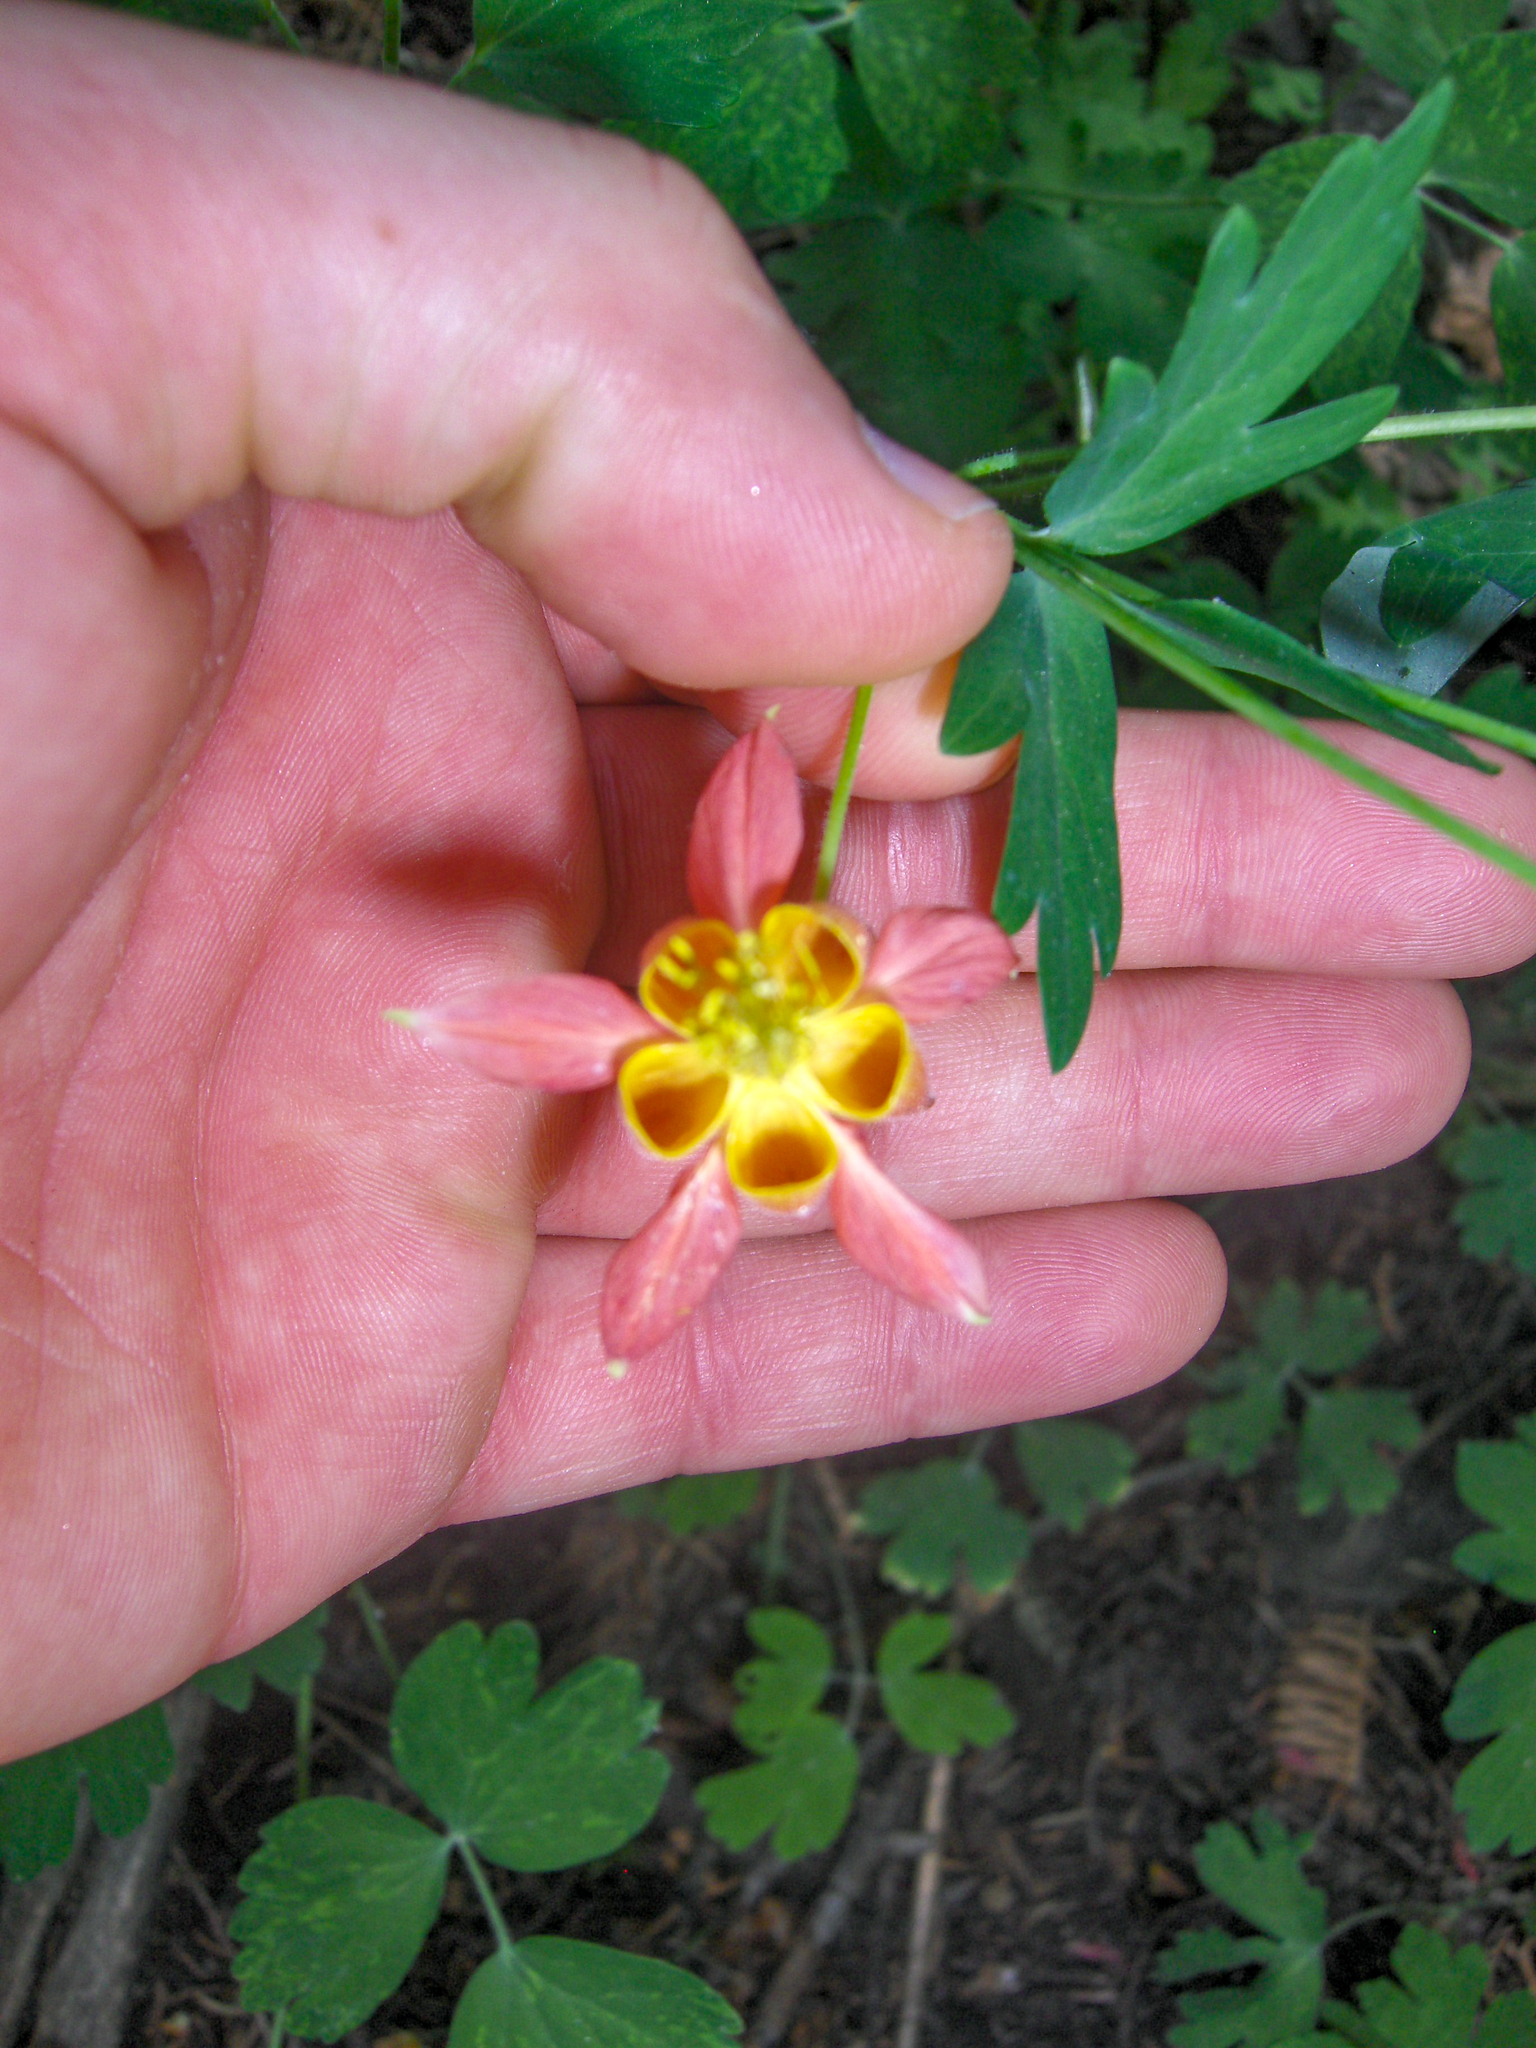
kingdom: Plantae
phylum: Tracheophyta
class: Magnoliopsida
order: Ranunculales
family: Ranunculaceae
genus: Aquilegia
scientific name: Aquilegia formosa
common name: Sitka columbine
